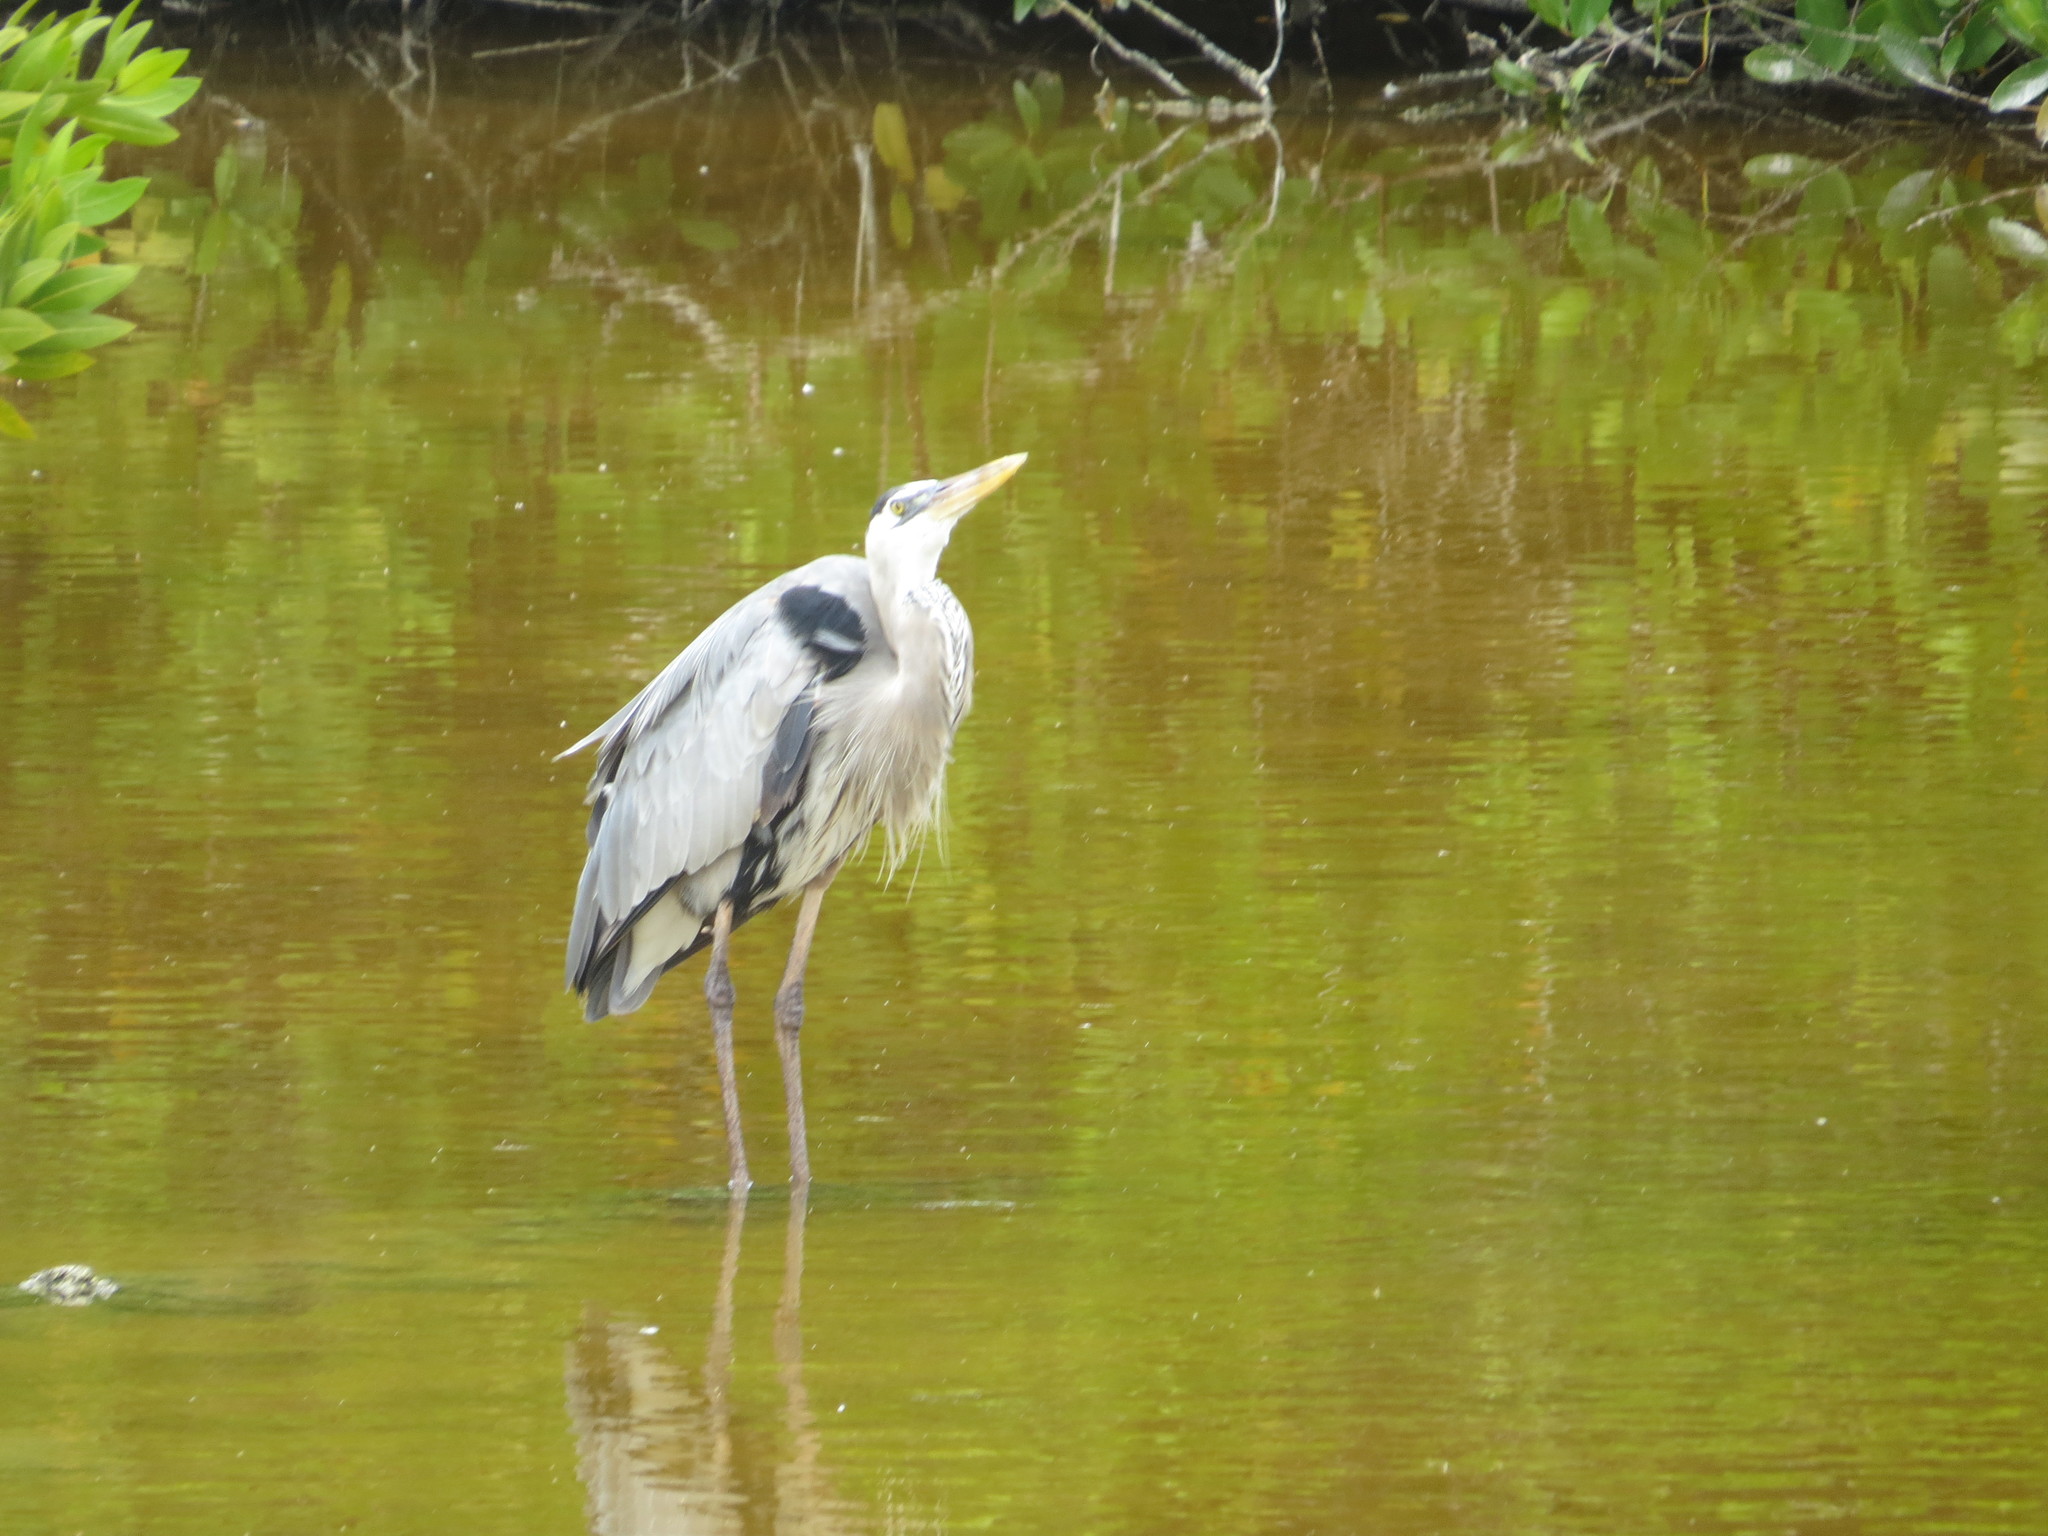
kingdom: Animalia
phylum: Chordata
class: Aves
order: Pelecaniformes
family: Ardeidae
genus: Ardea
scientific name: Ardea herodias
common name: Great blue heron
